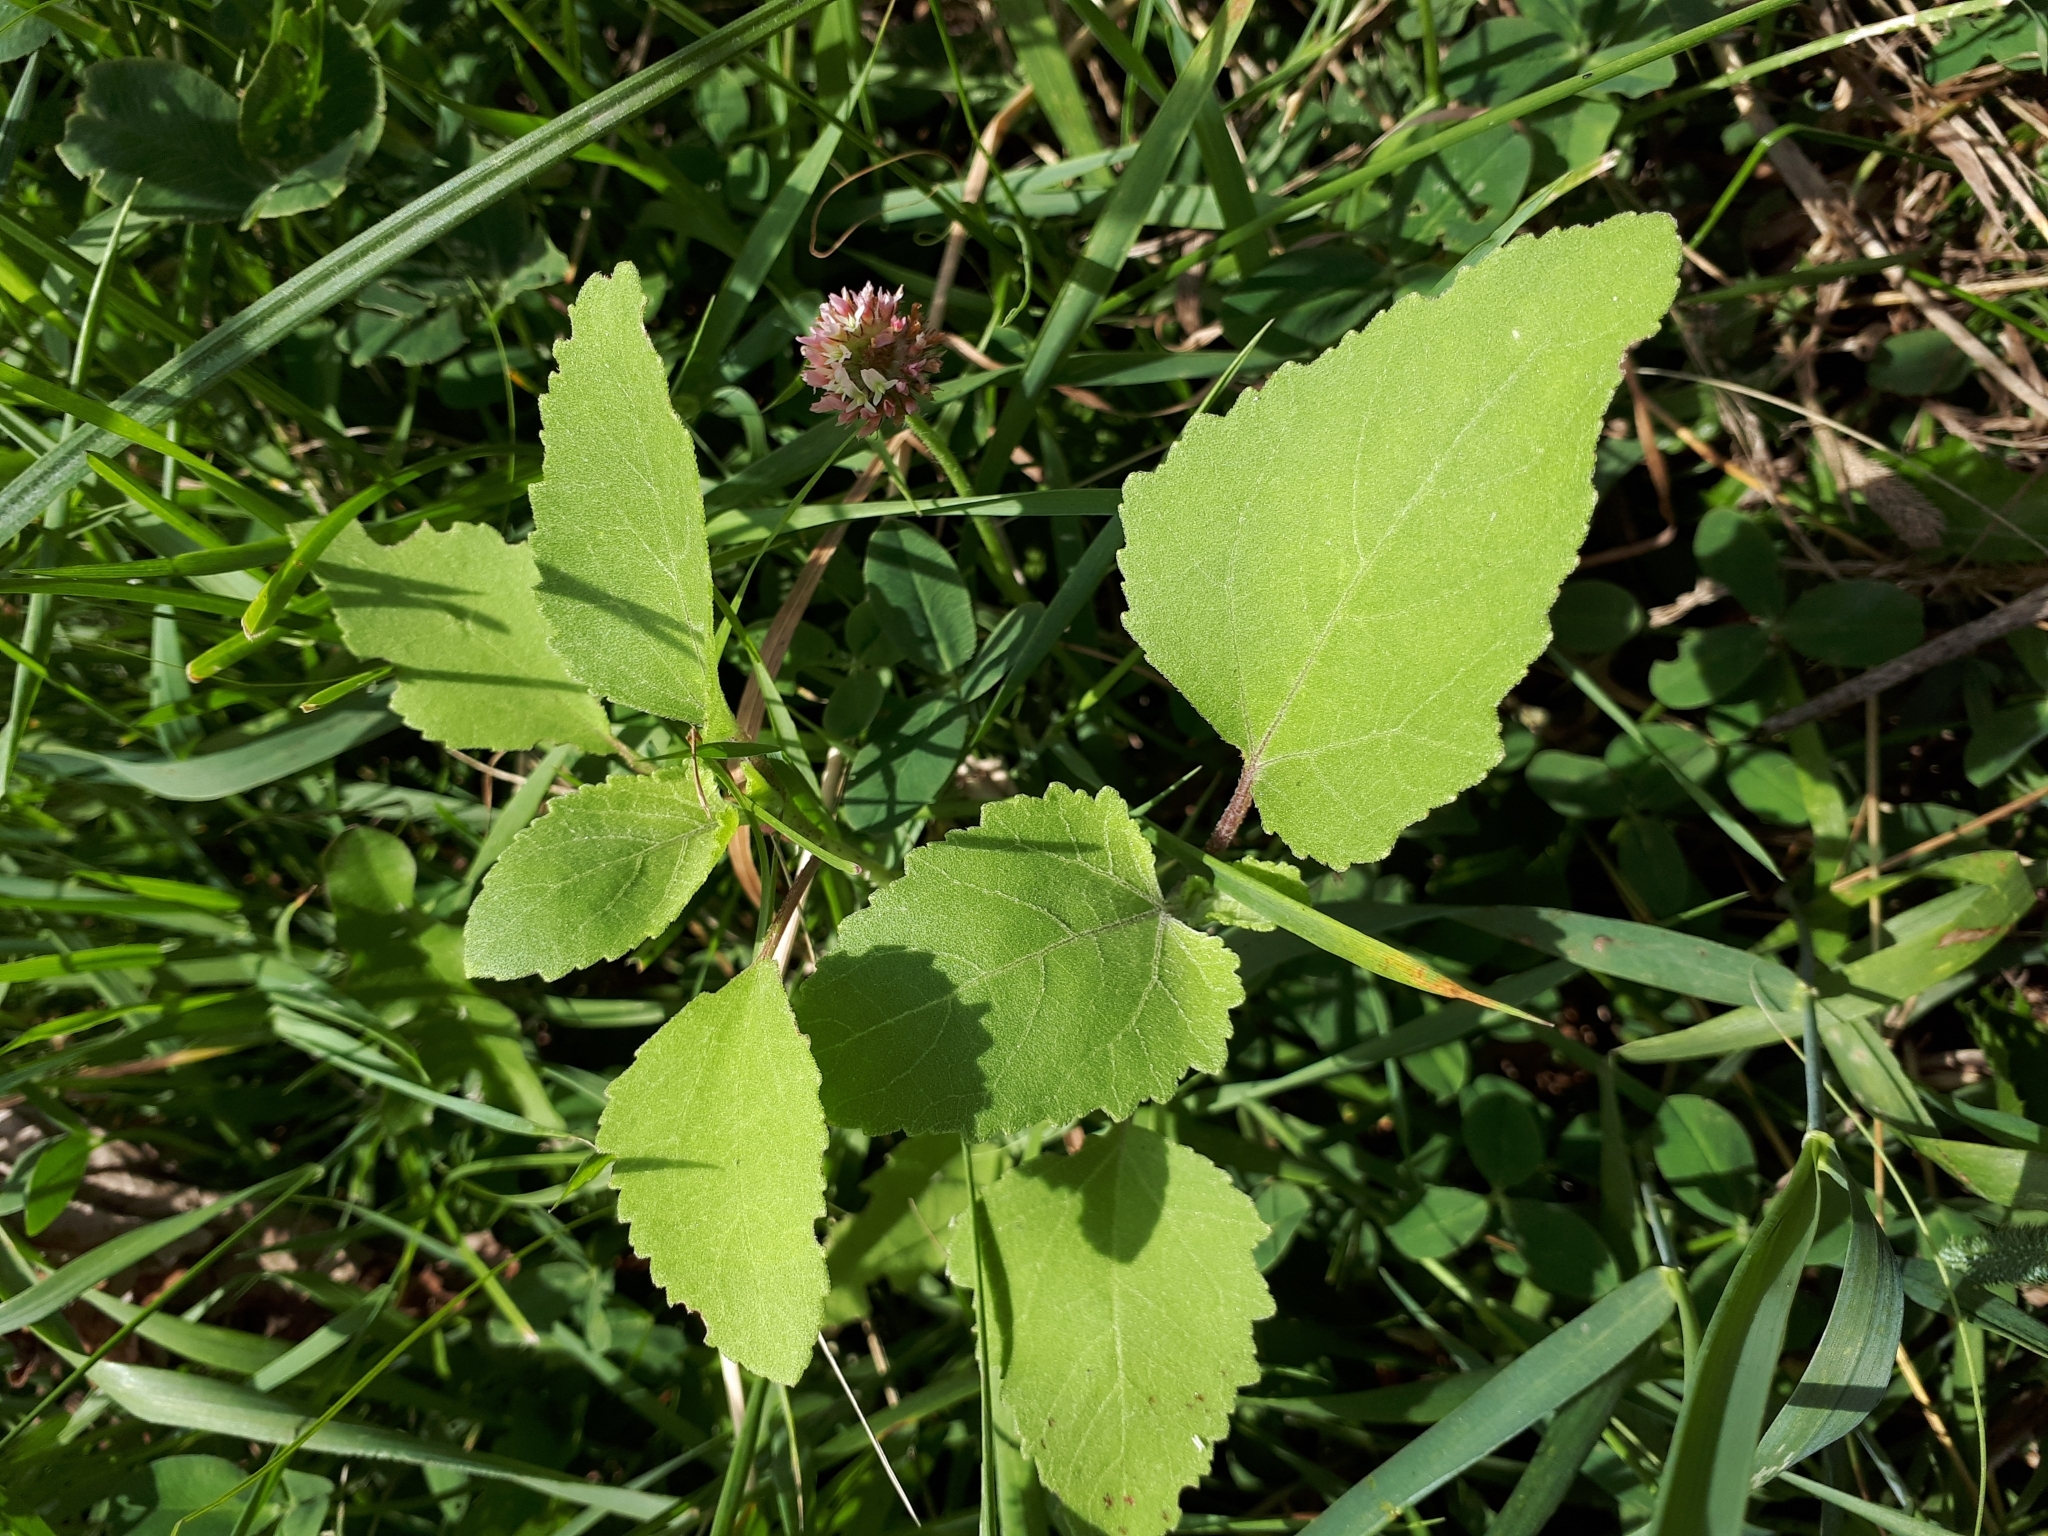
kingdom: Plantae
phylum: Tracheophyta
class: Magnoliopsida
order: Asterales
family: Asteraceae
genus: Xanthium
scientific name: Xanthium orientale
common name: Californian burr
